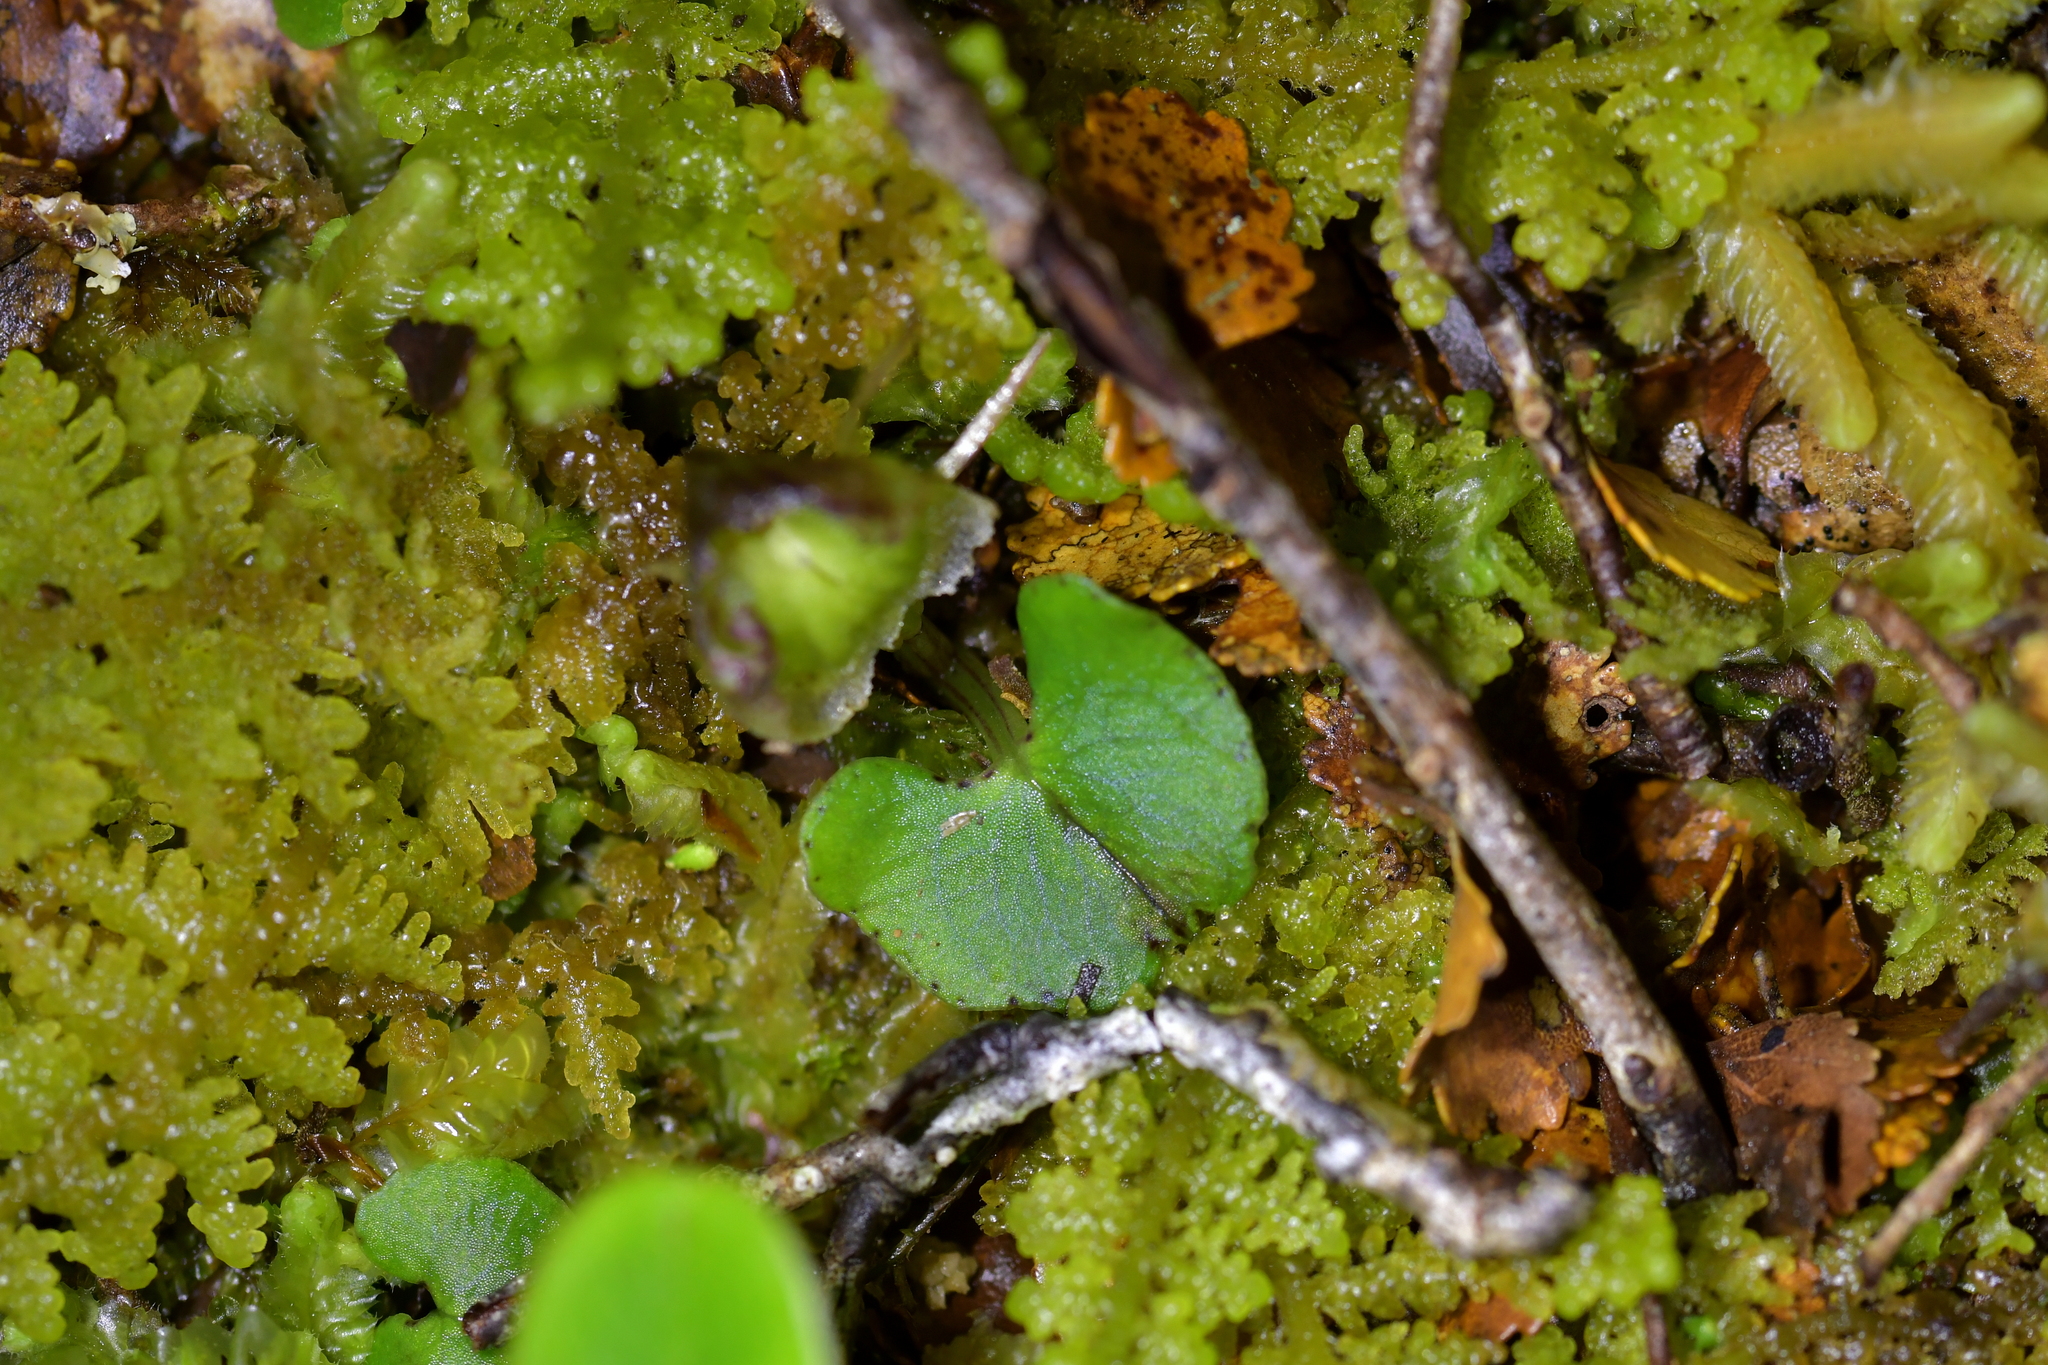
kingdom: Plantae
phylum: Tracheophyta
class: Liliopsida
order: Asparagales
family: Orchidaceae
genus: Corybas
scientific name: Corybas walliae
